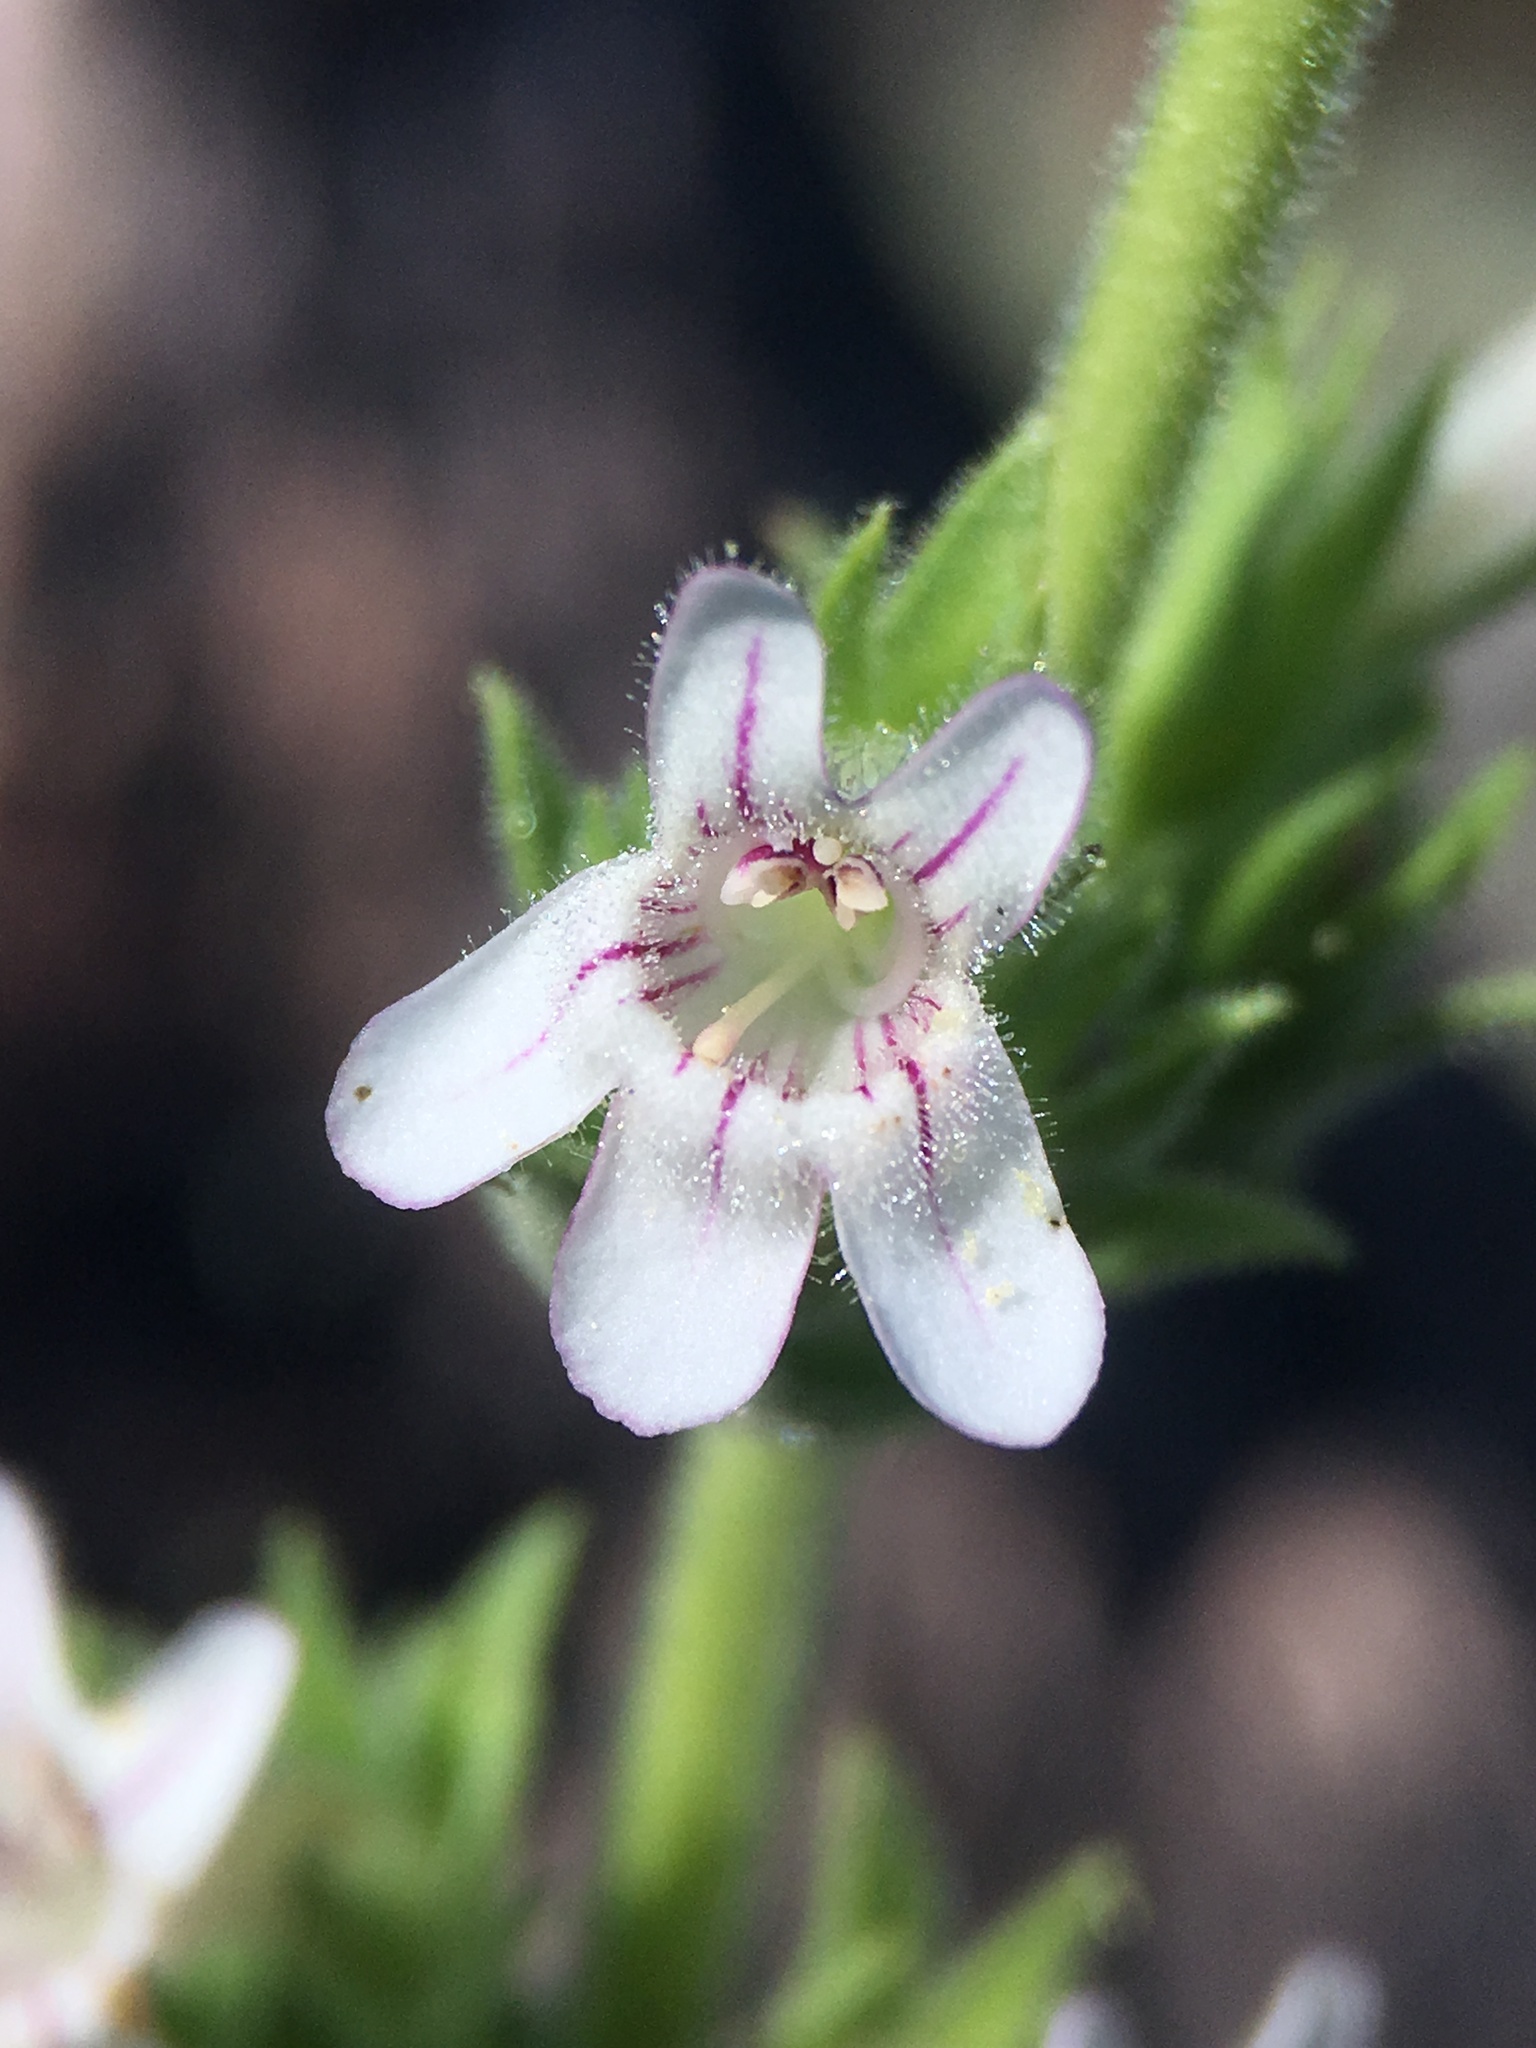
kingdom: Plantae
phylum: Tracheophyta
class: Magnoliopsida
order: Lamiales
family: Plantaginaceae
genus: Penstemon
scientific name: Penstemon sudans
